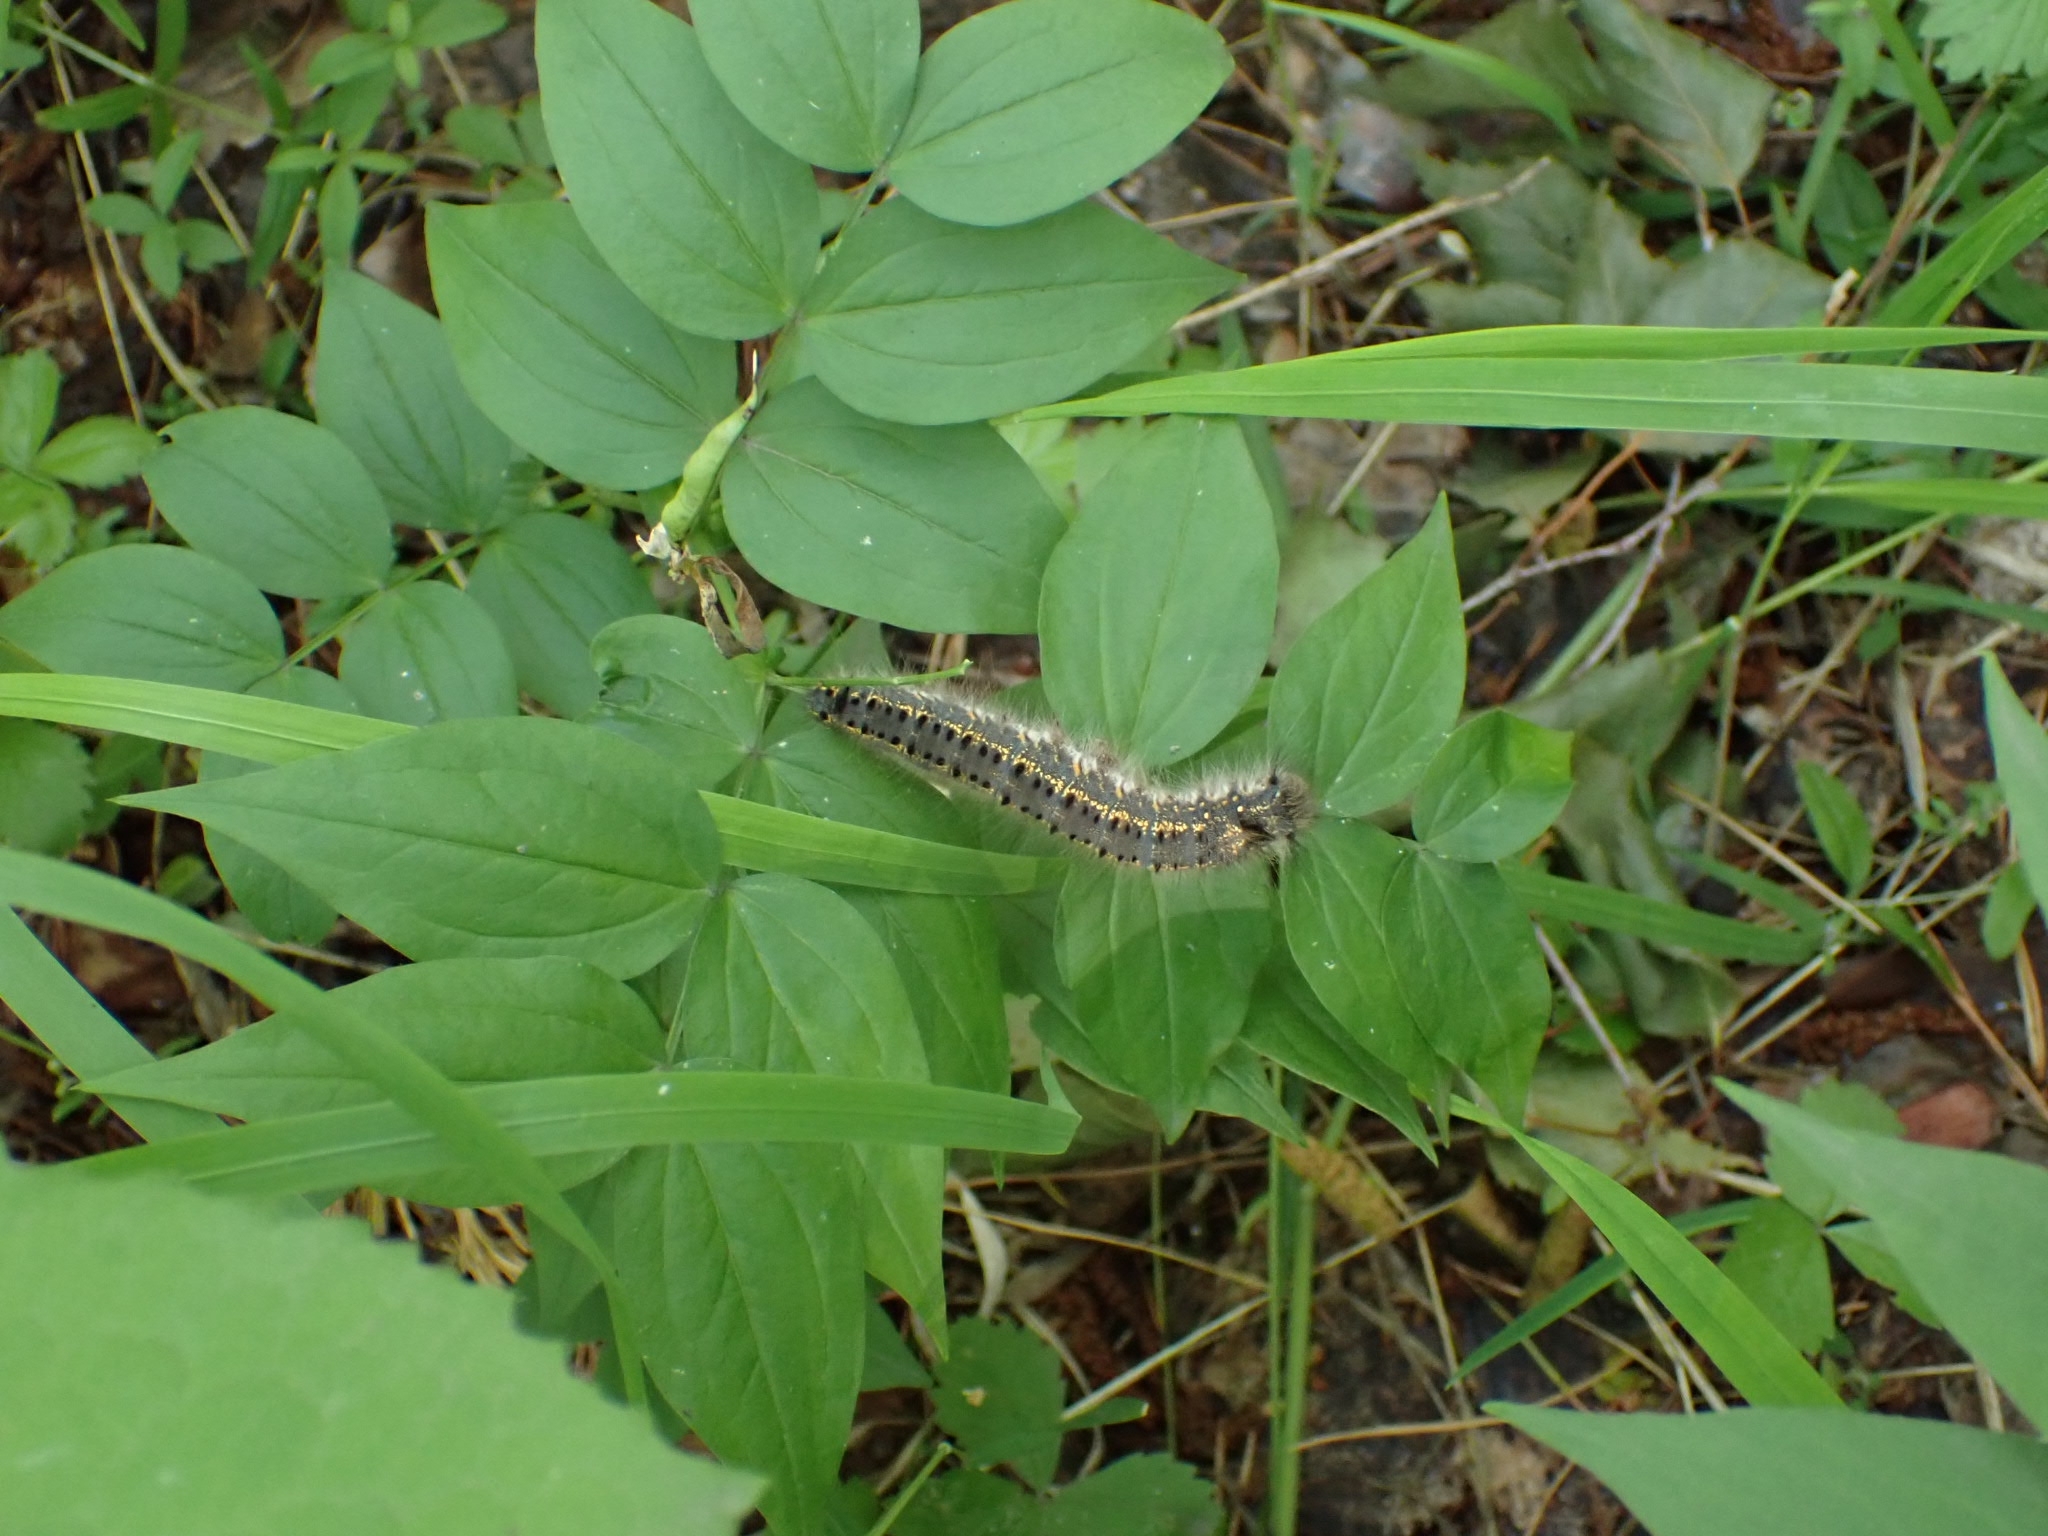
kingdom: Animalia
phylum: Arthropoda
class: Insecta
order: Lepidoptera
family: Lasiocampidae
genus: Euthrix
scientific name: Euthrix potatoria
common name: Drinker
